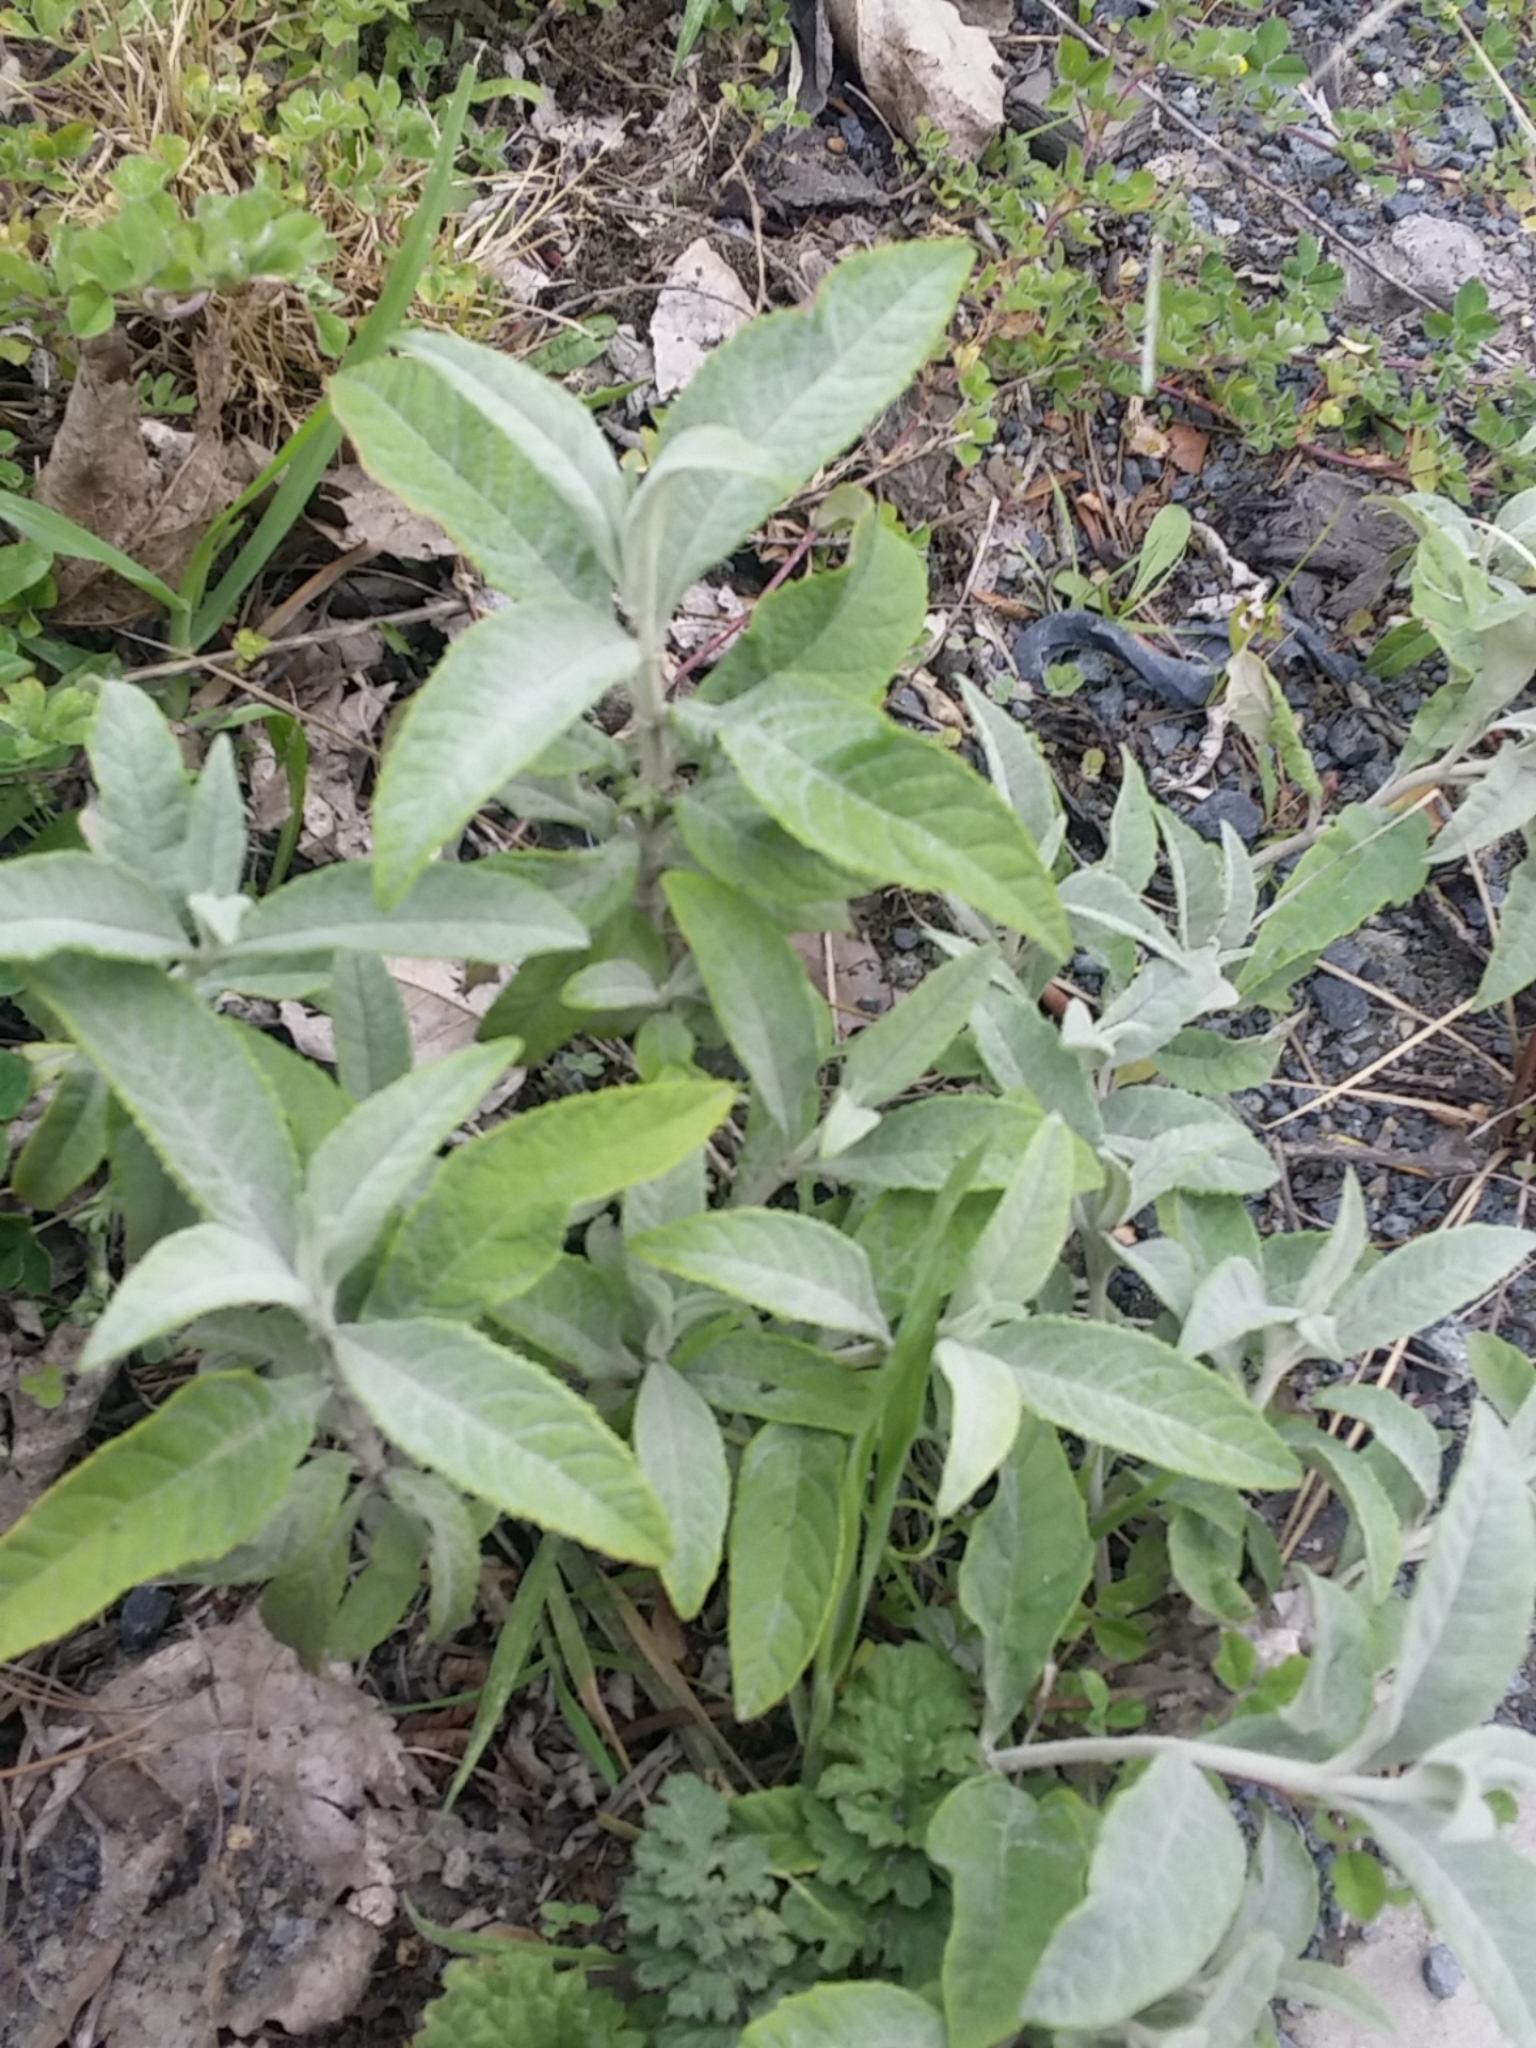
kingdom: Plantae
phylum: Tracheophyta
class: Magnoliopsida
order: Lamiales
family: Scrophulariaceae
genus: Buddleja
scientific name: Buddleja davidii
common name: Butterfly-bush
